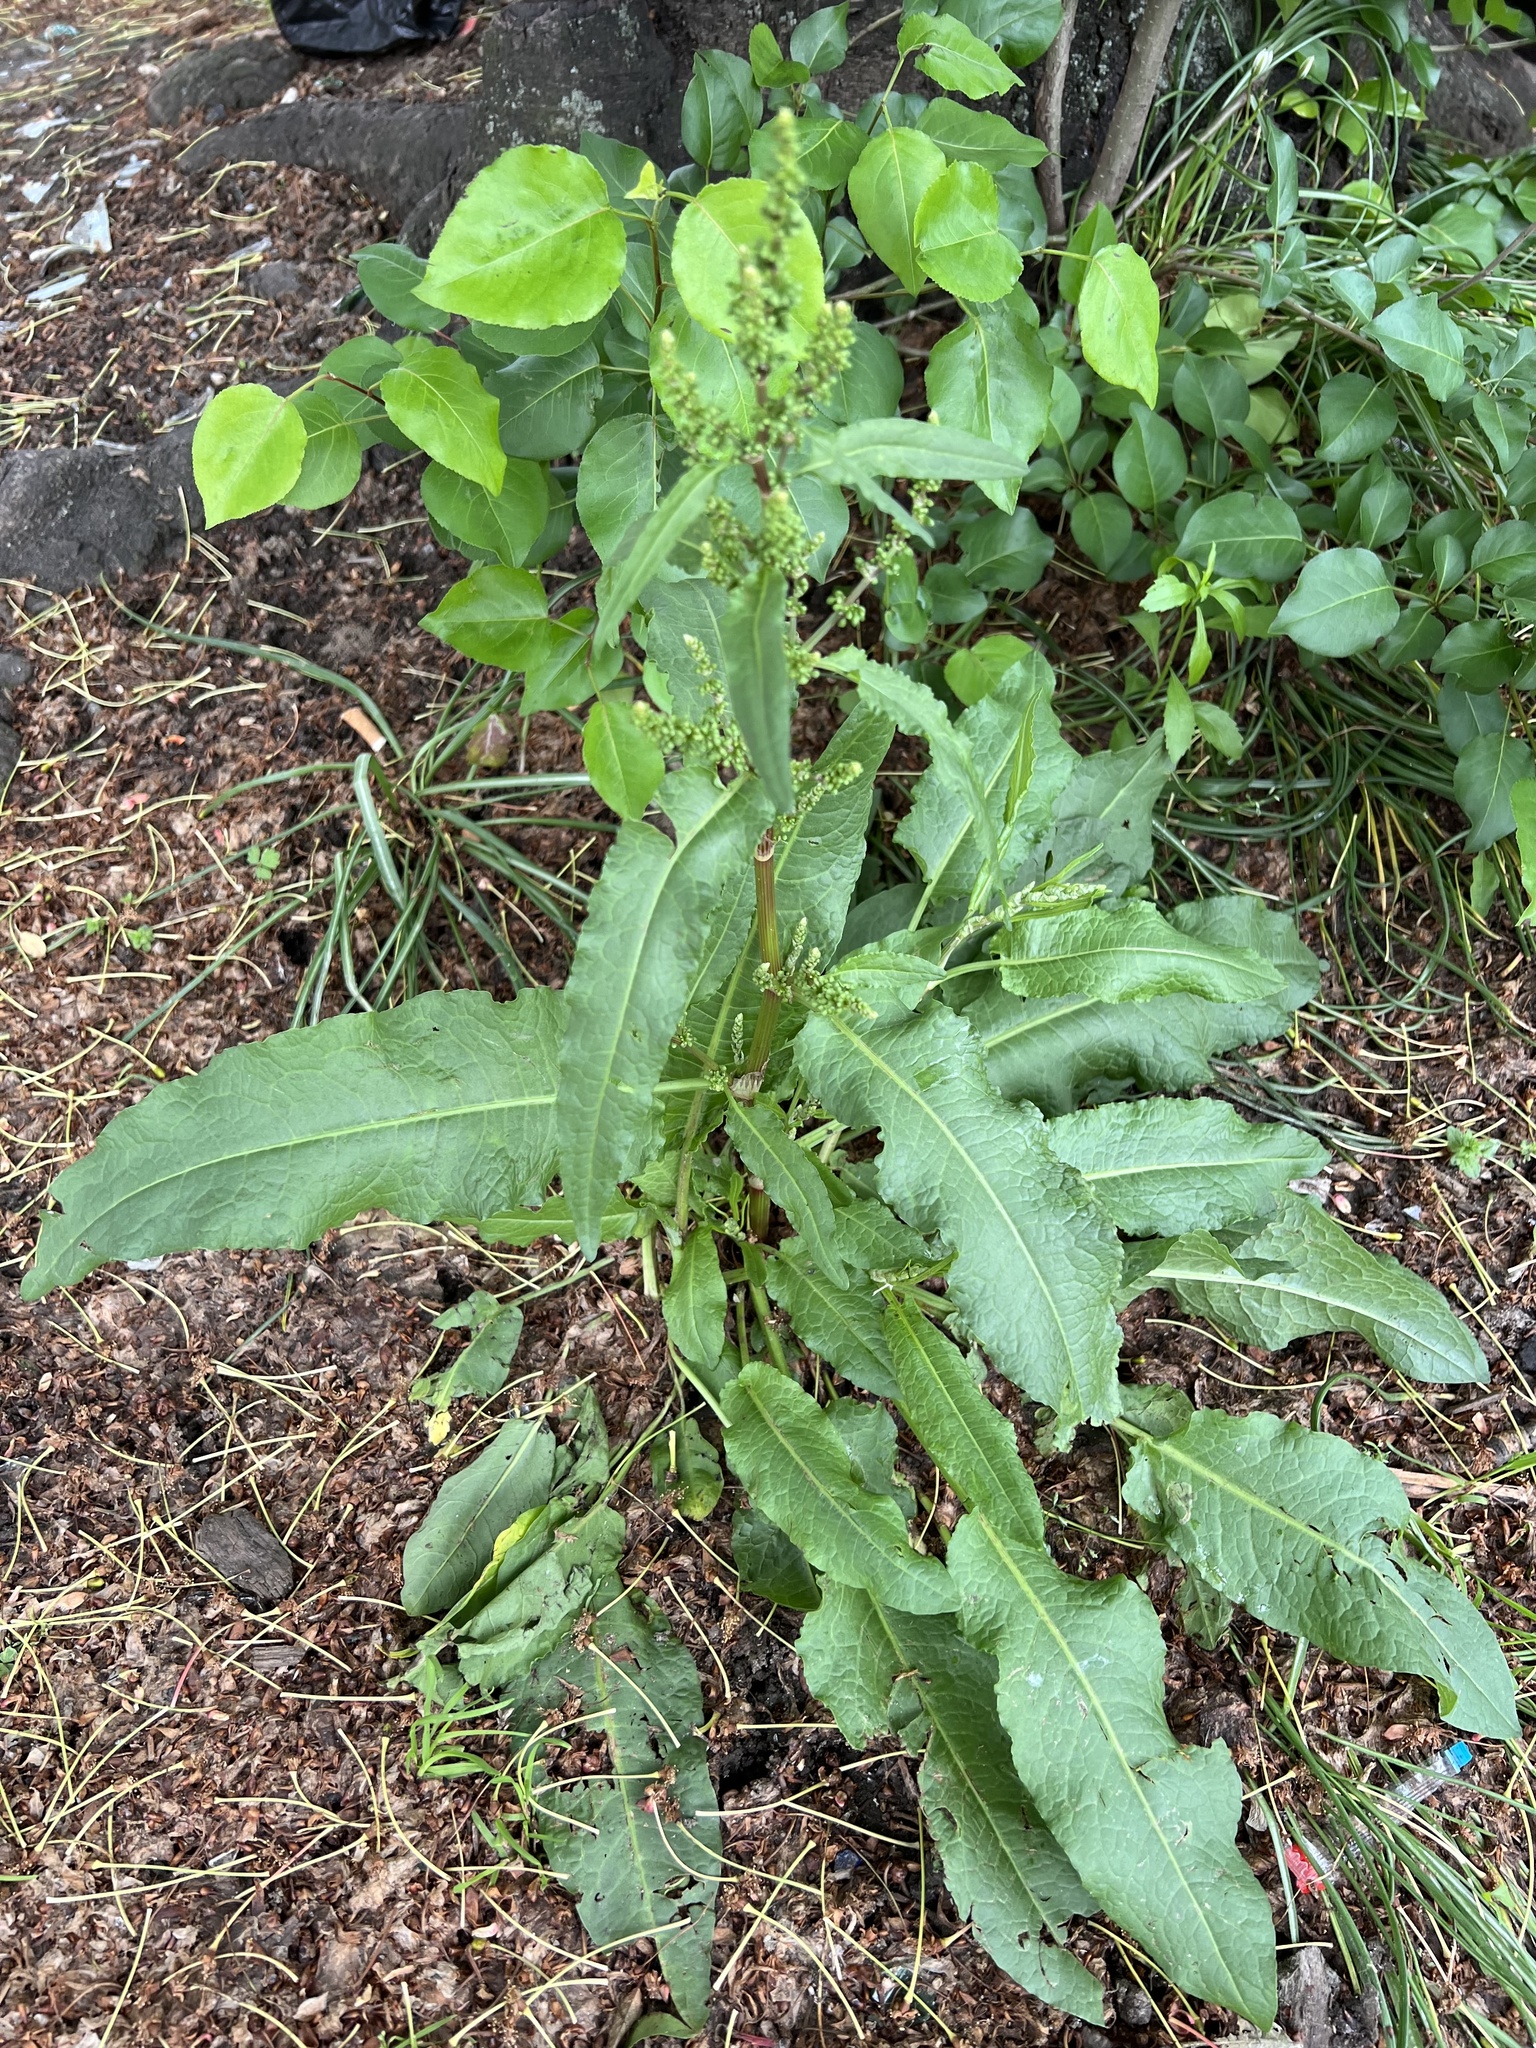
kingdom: Plantae
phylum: Tracheophyta
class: Magnoliopsida
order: Caryophyllales
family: Polygonaceae
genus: Rumex
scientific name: Rumex crispus
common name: Curled dock
